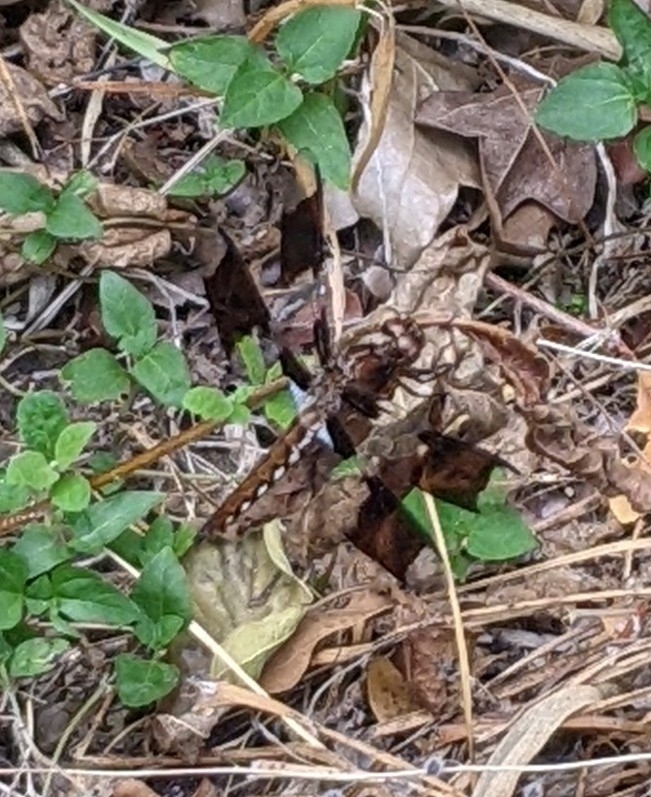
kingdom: Animalia
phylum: Arthropoda
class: Insecta
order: Odonata
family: Libellulidae
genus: Plathemis
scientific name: Plathemis lydia
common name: Common whitetail
